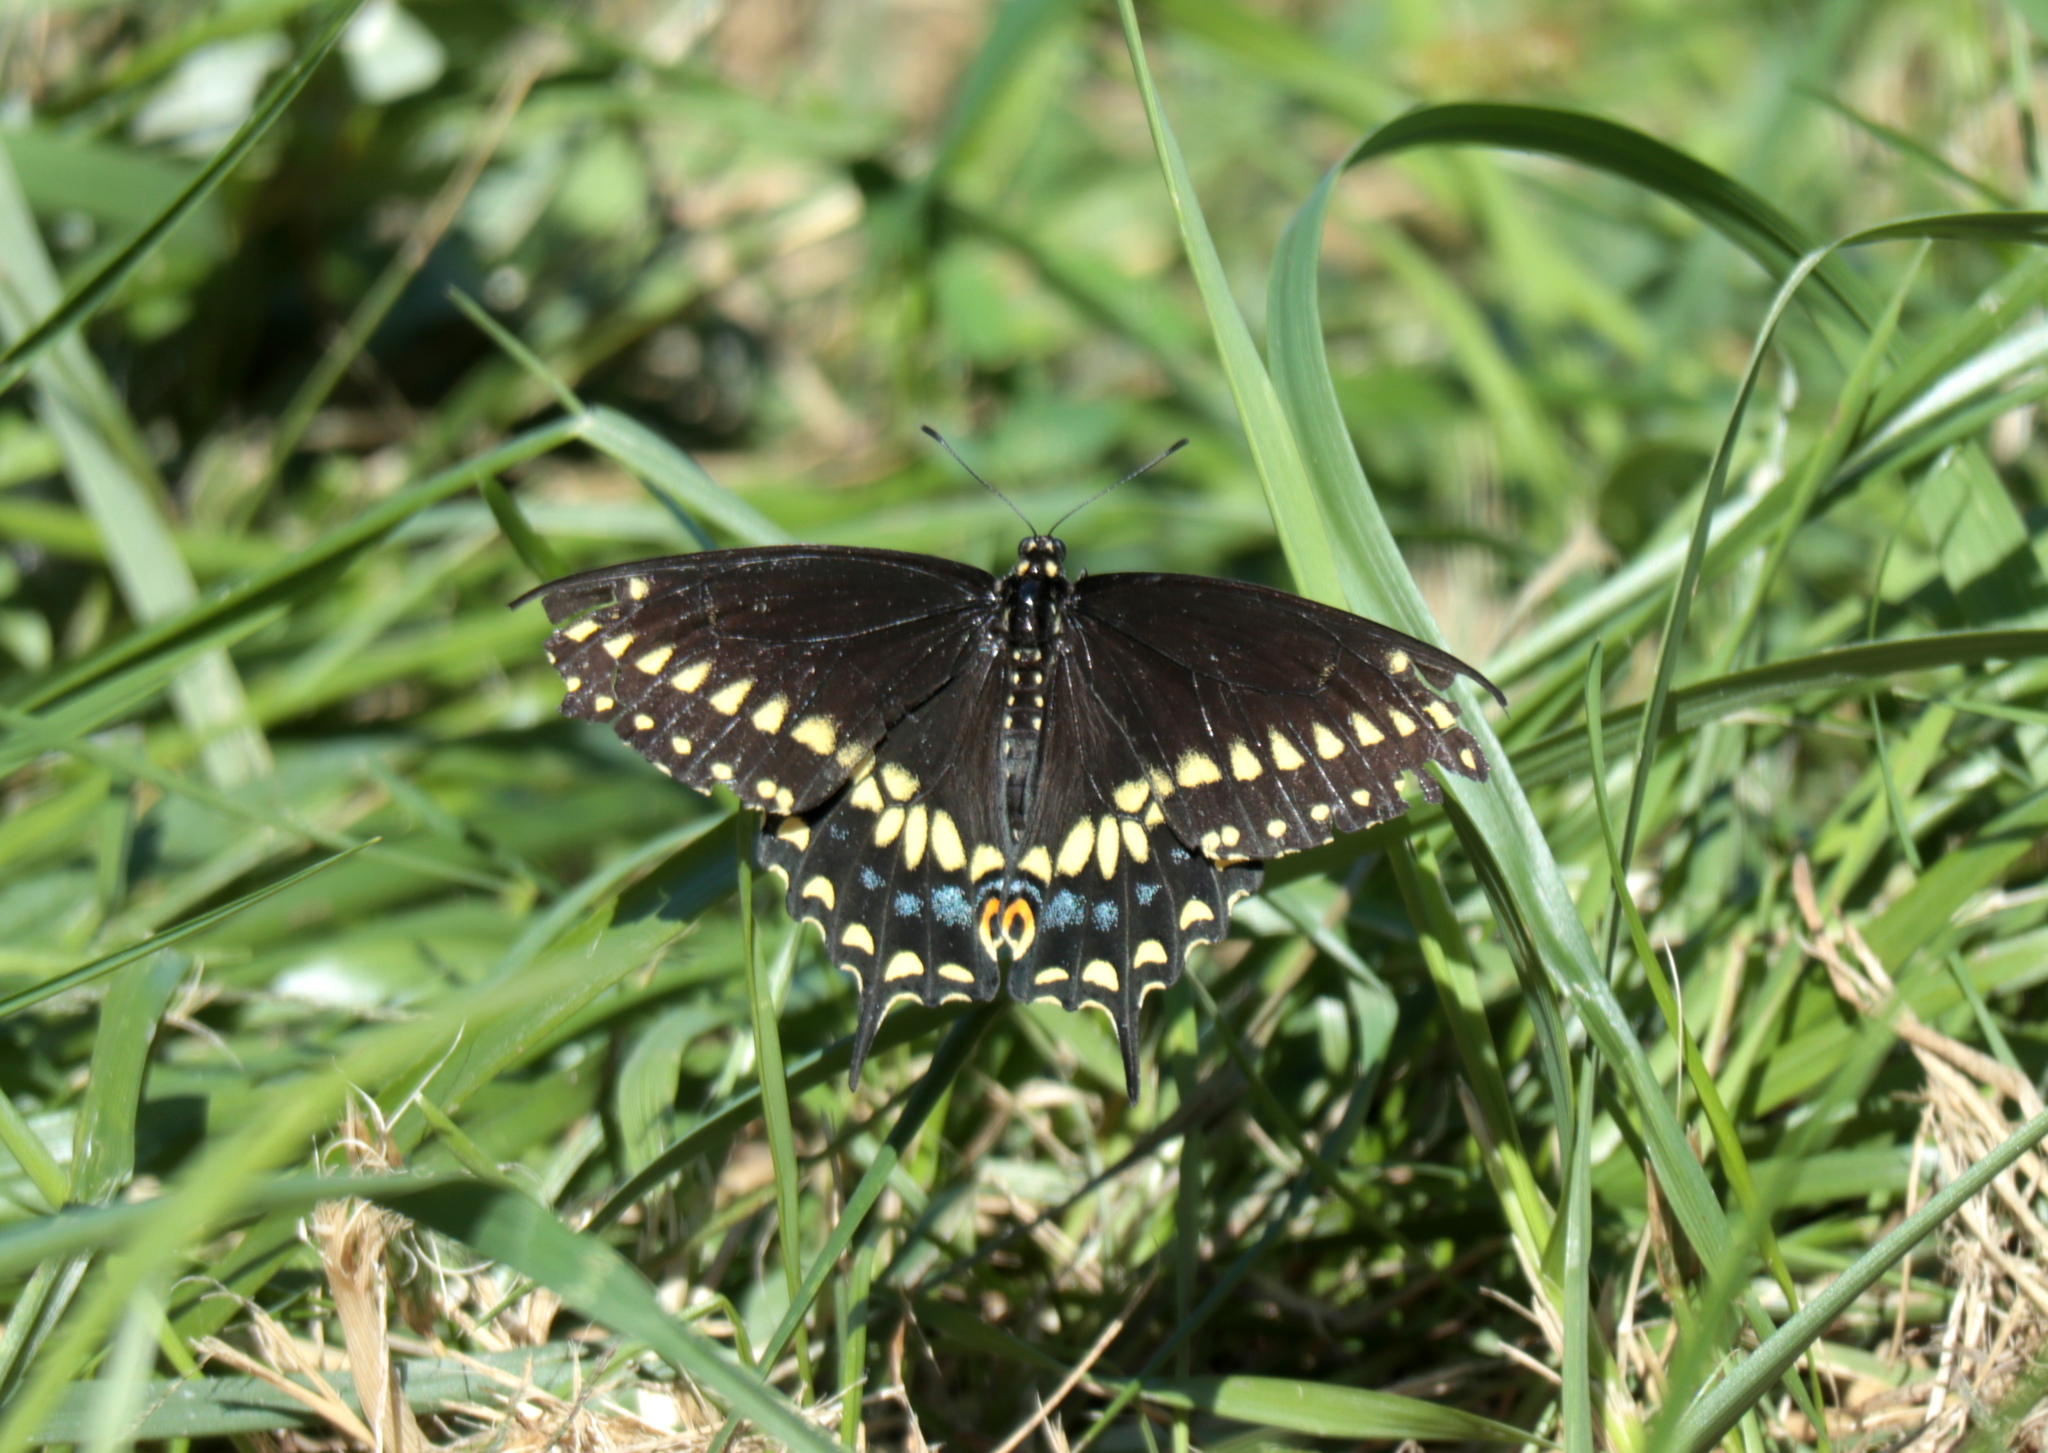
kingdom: Animalia
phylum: Arthropoda
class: Insecta
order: Lepidoptera
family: Papilionidae
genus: Papilio
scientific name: Papilio polyxenes
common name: Black swallowtail
